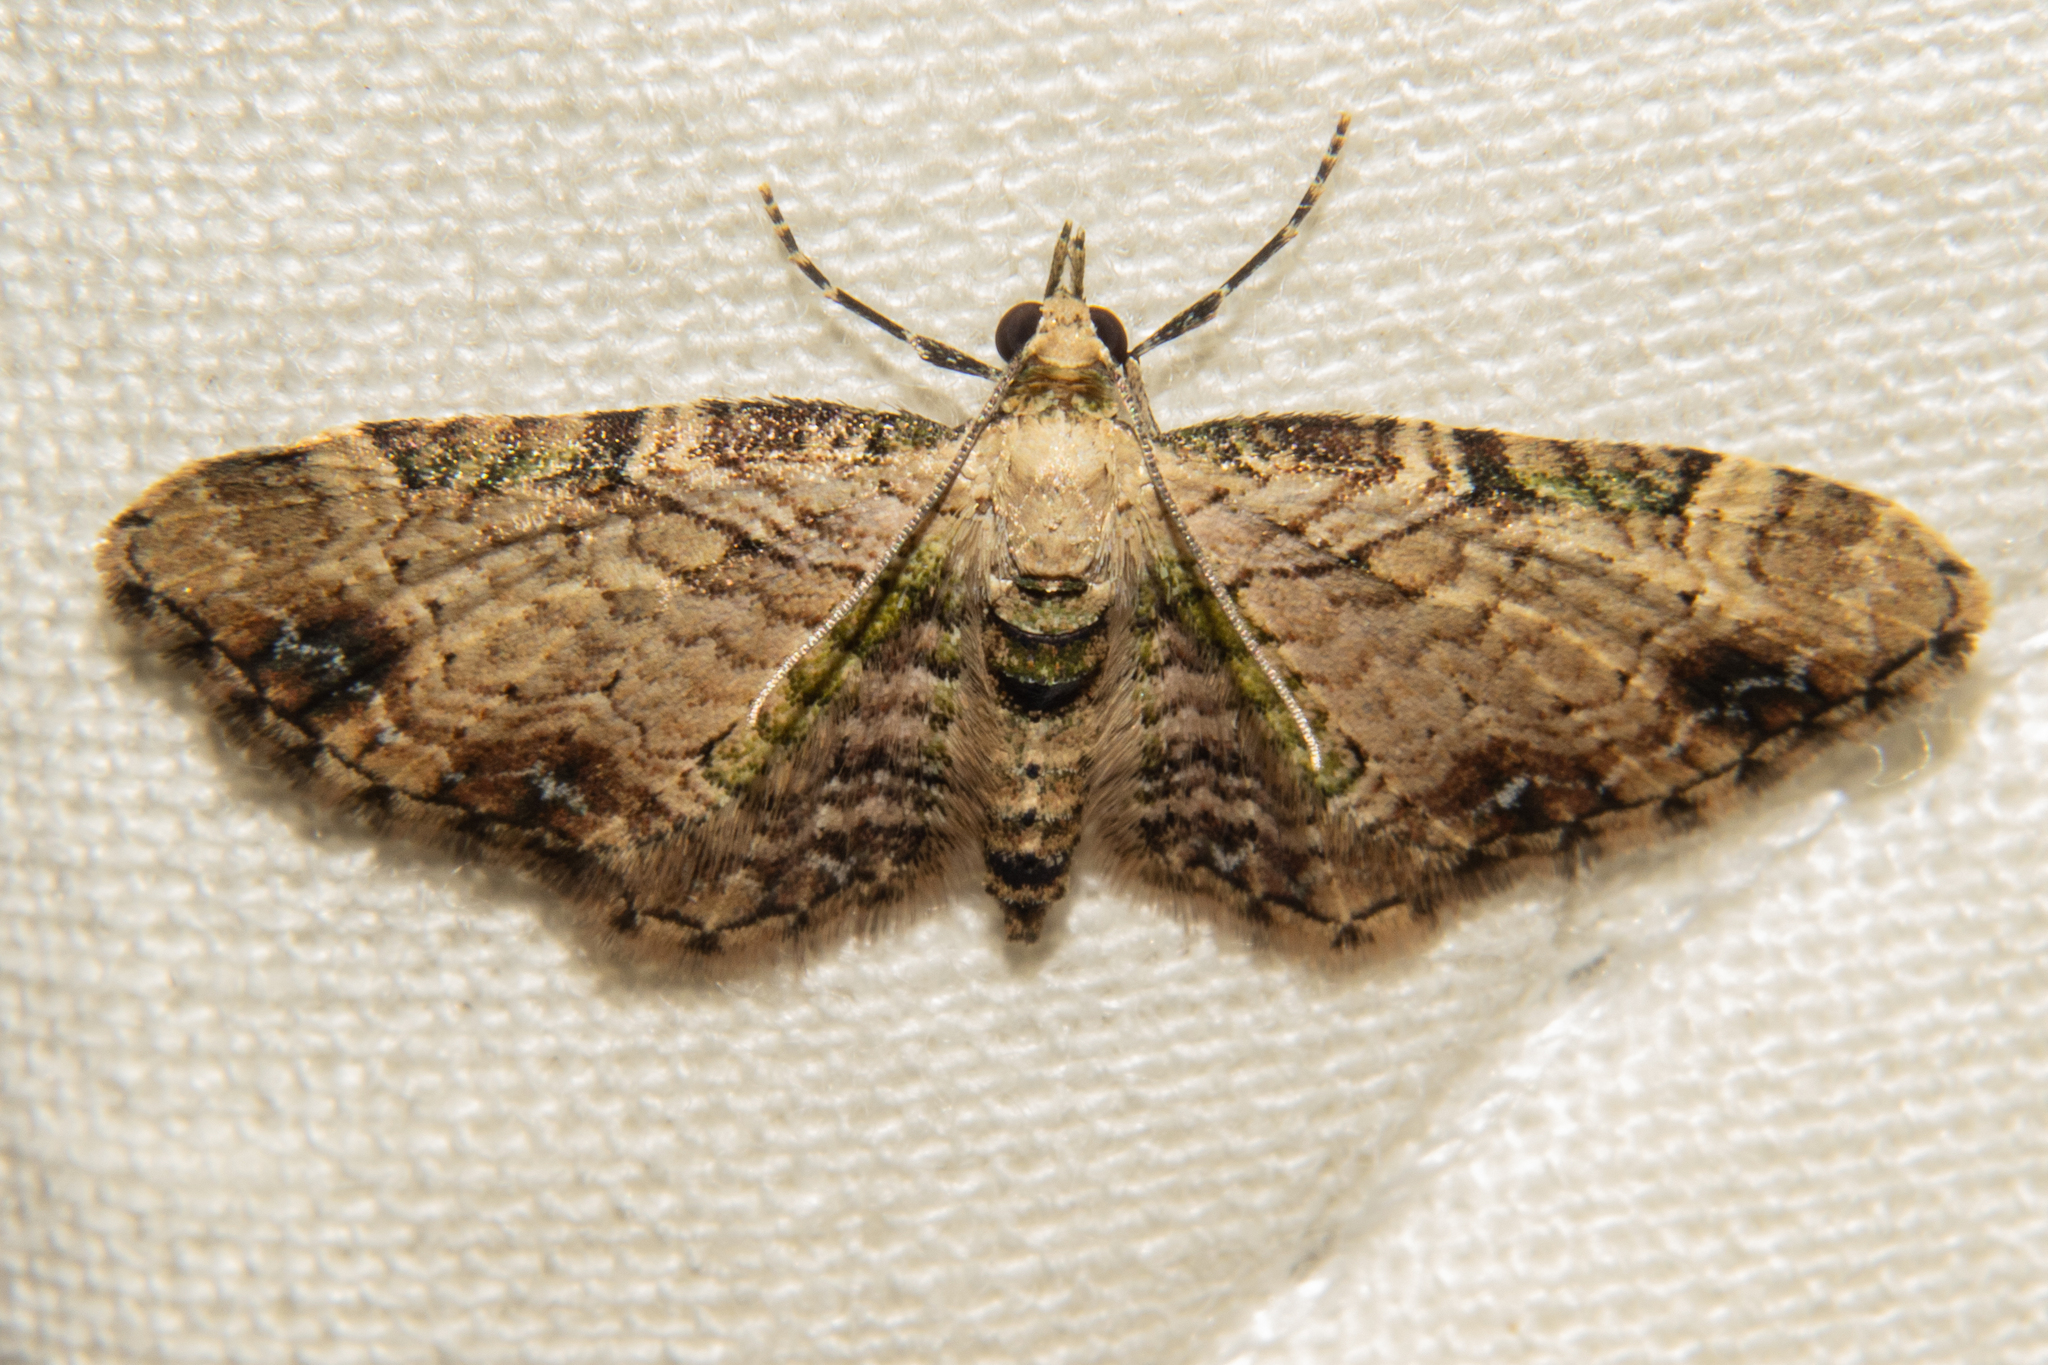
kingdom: Animalia
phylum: Arthropoda
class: Insecta
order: Lepidoptera
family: Geometridae
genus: Chloroclystis
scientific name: Chloroclystis
